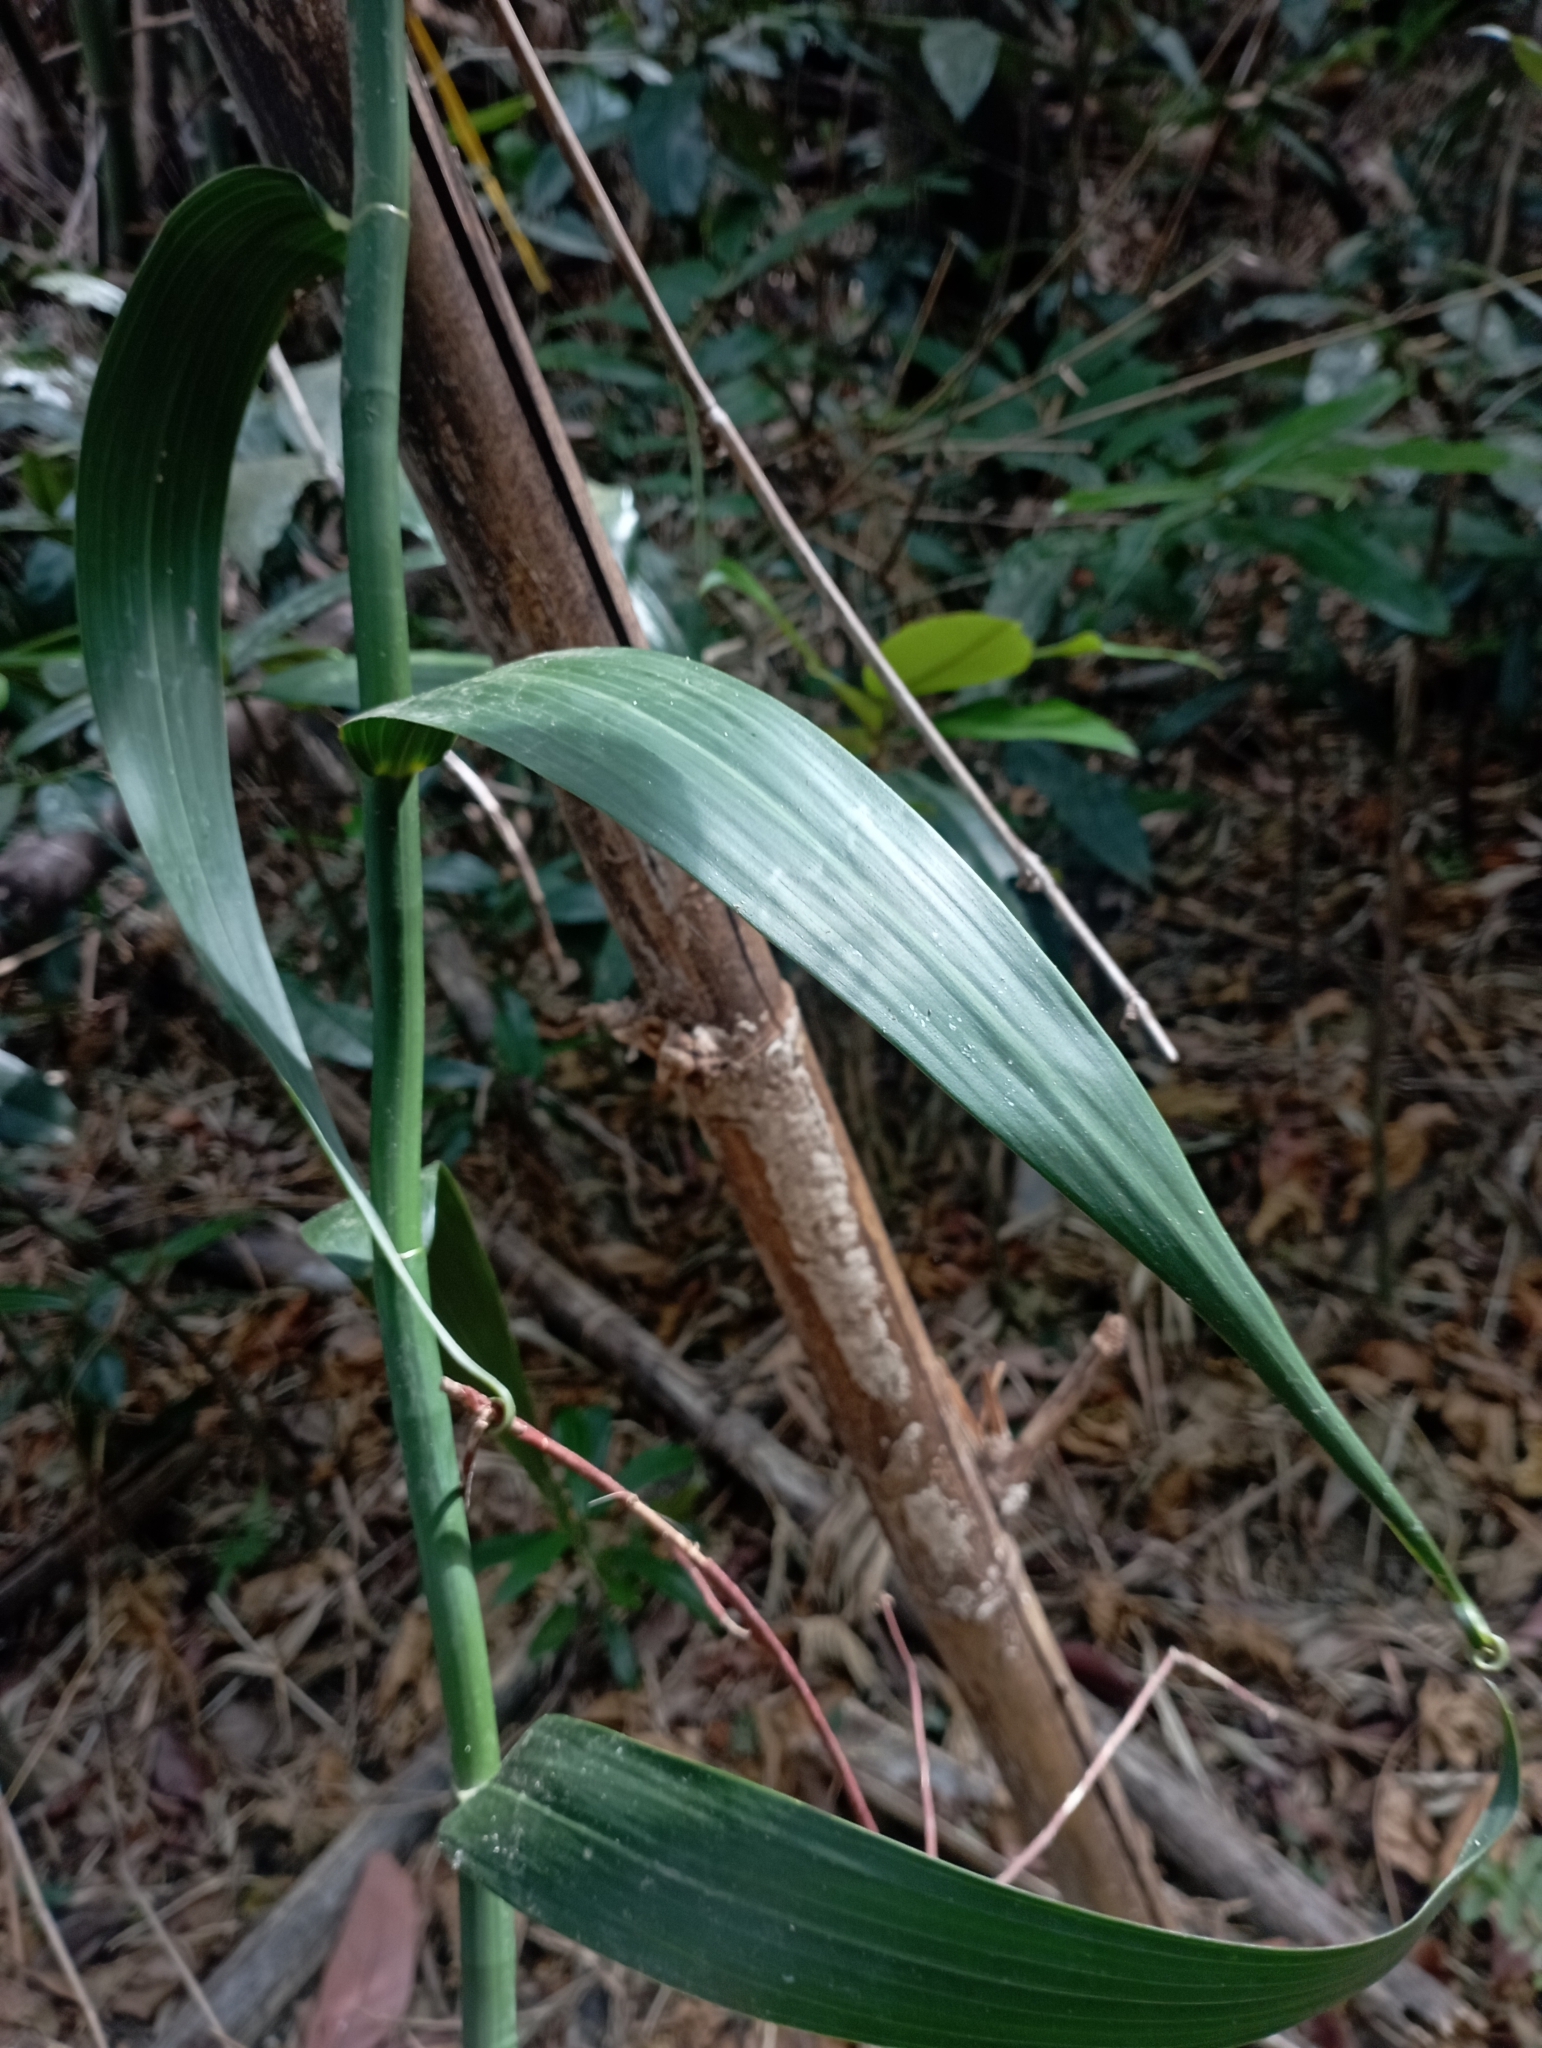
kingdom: Plantae
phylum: Tracheophyta
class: Liliopsida
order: Poales
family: Flagellariaceae
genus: Flagellaria
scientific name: Flagellaria indica
